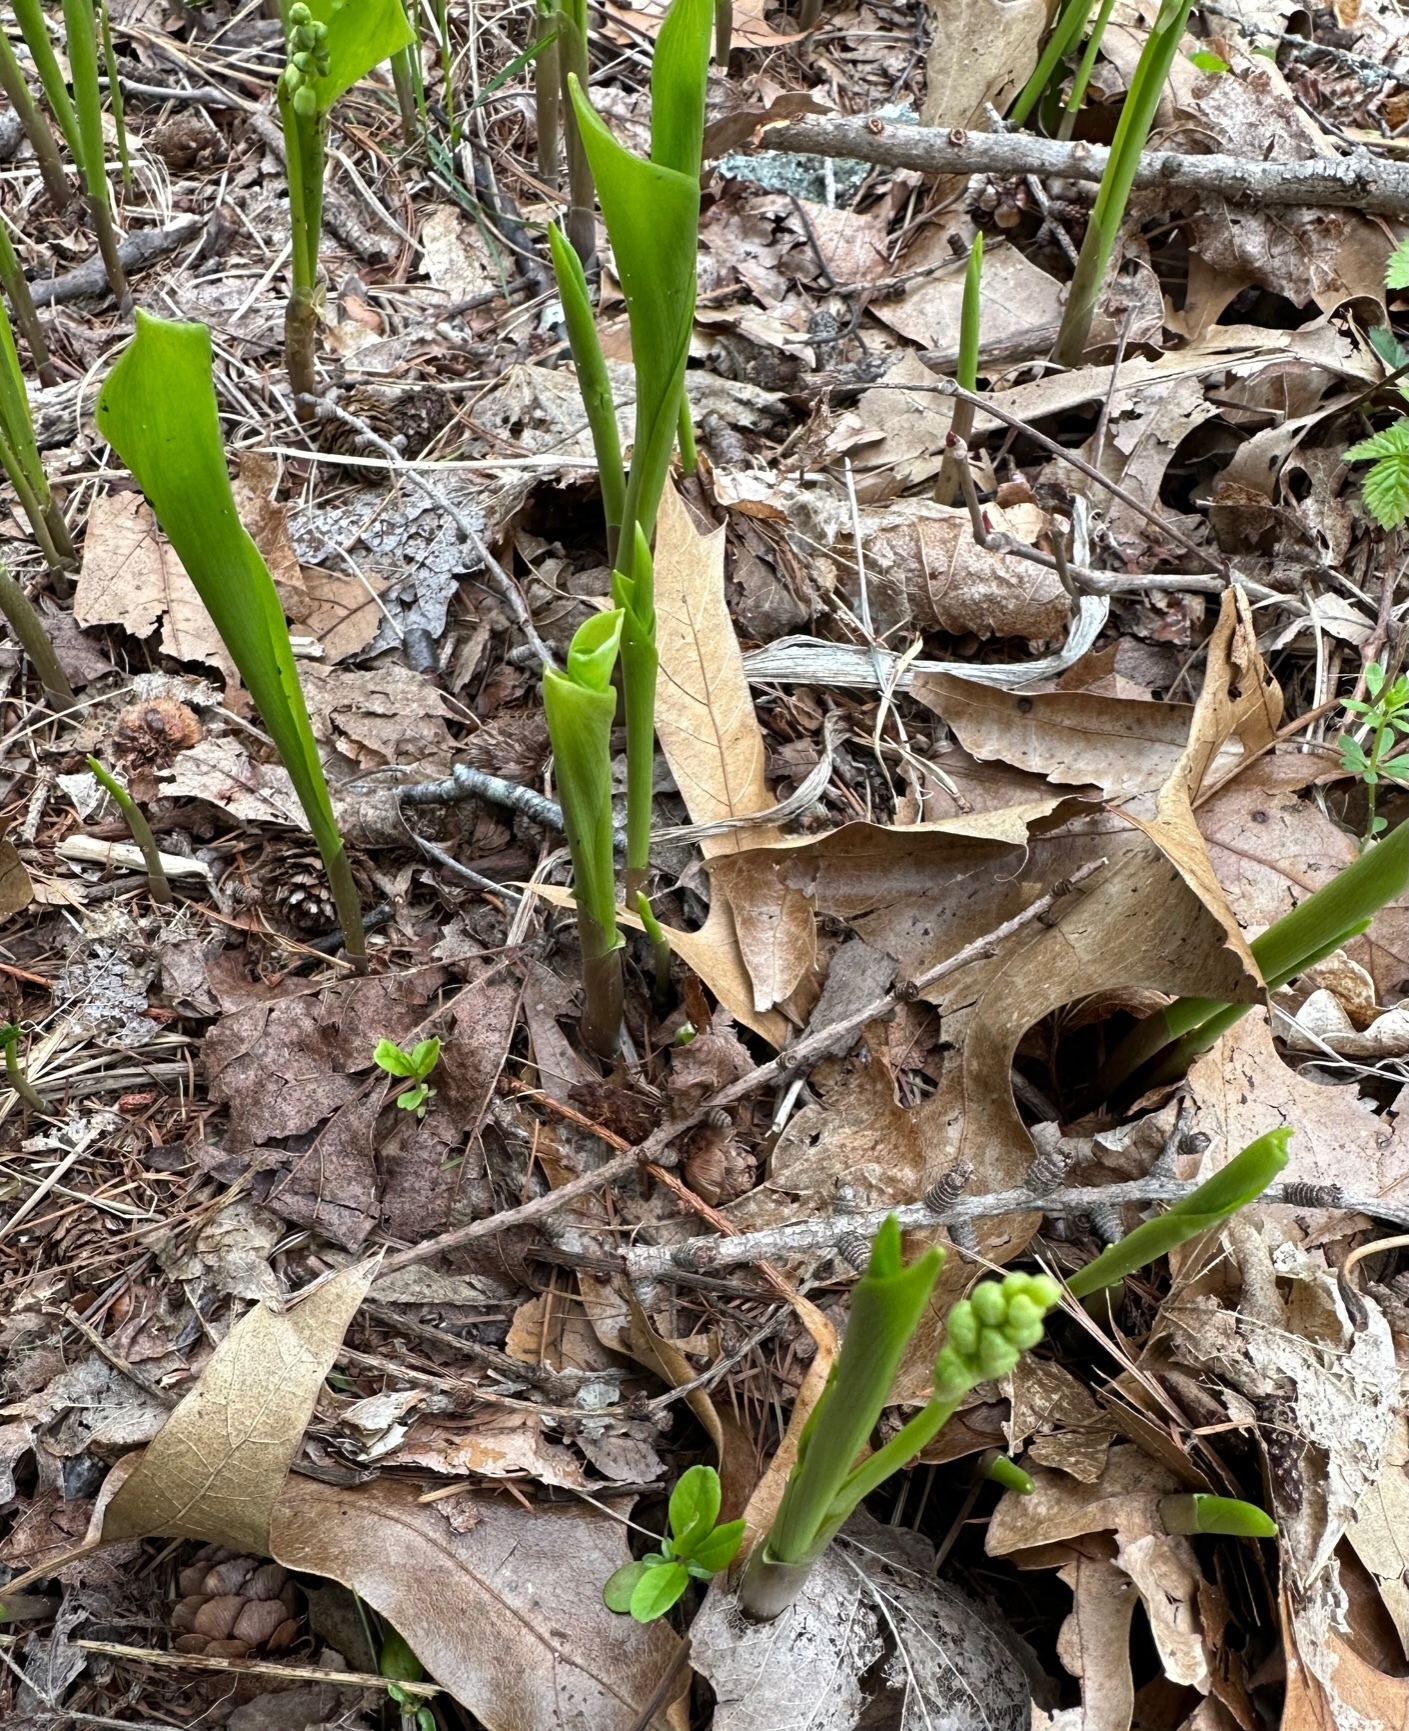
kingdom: Plantae
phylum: Tracheophyta
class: Liliopsida
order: Asparagales
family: Asparagaceae
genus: Convallaria
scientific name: Convallaria majalis
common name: Lily-of-the-valley
